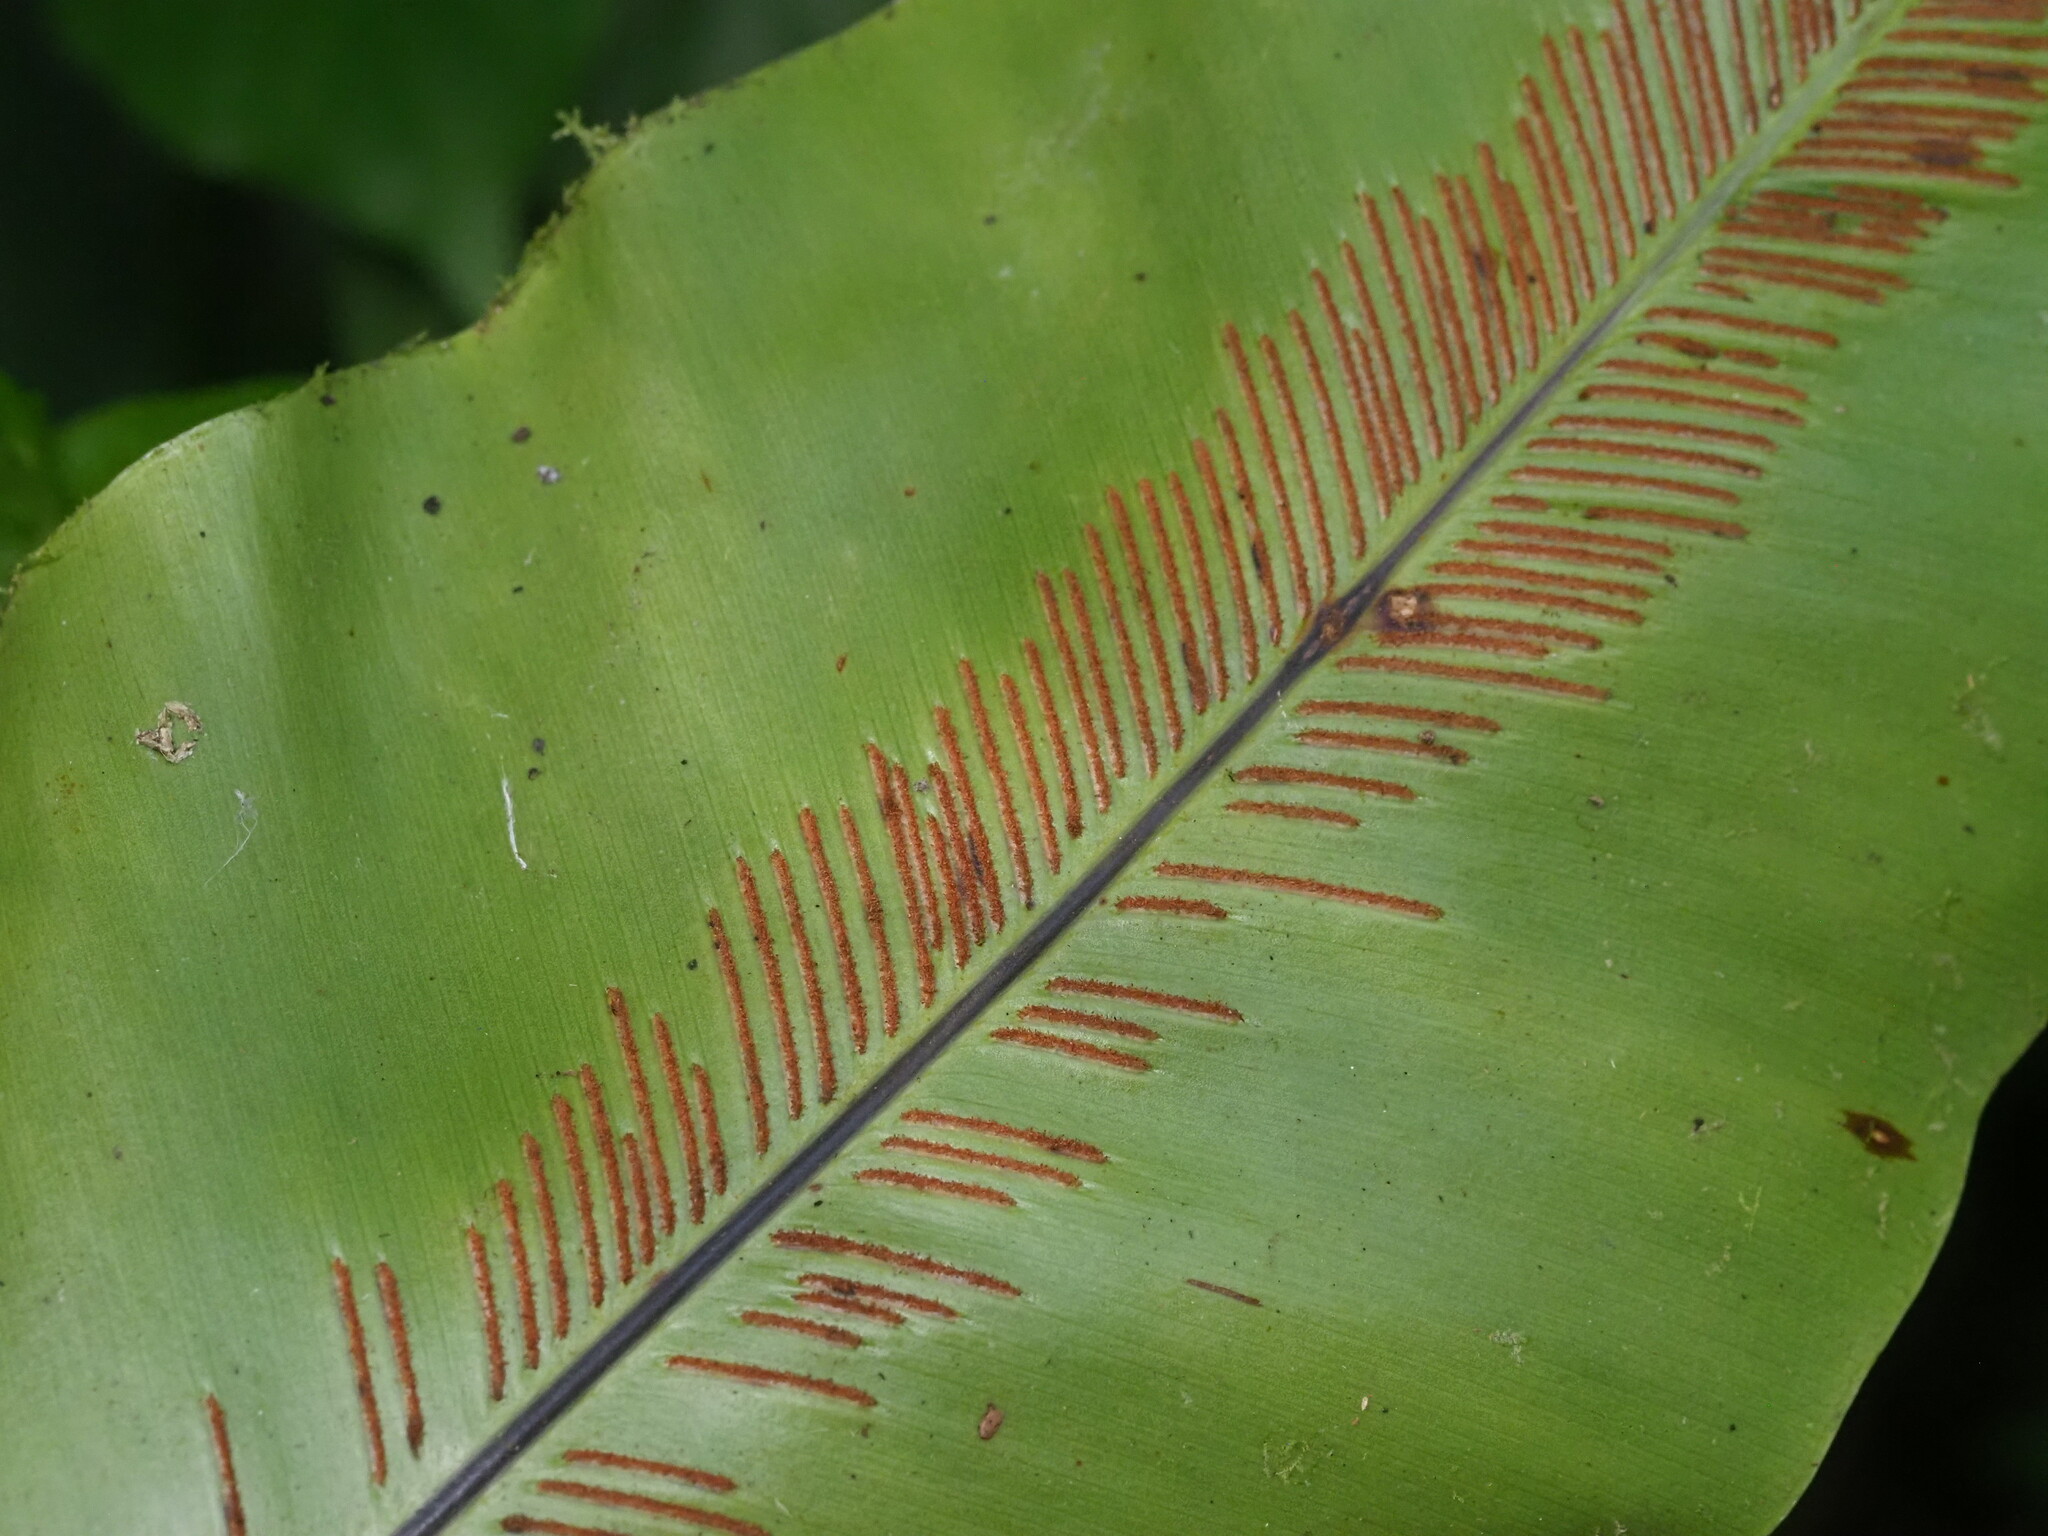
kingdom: Plantae
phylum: Tracheophyta
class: Polypodiopsida
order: Polypodiales
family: Aspleniaceae
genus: Asplenium
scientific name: Asplenium nidus
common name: Bird's-nest fern
